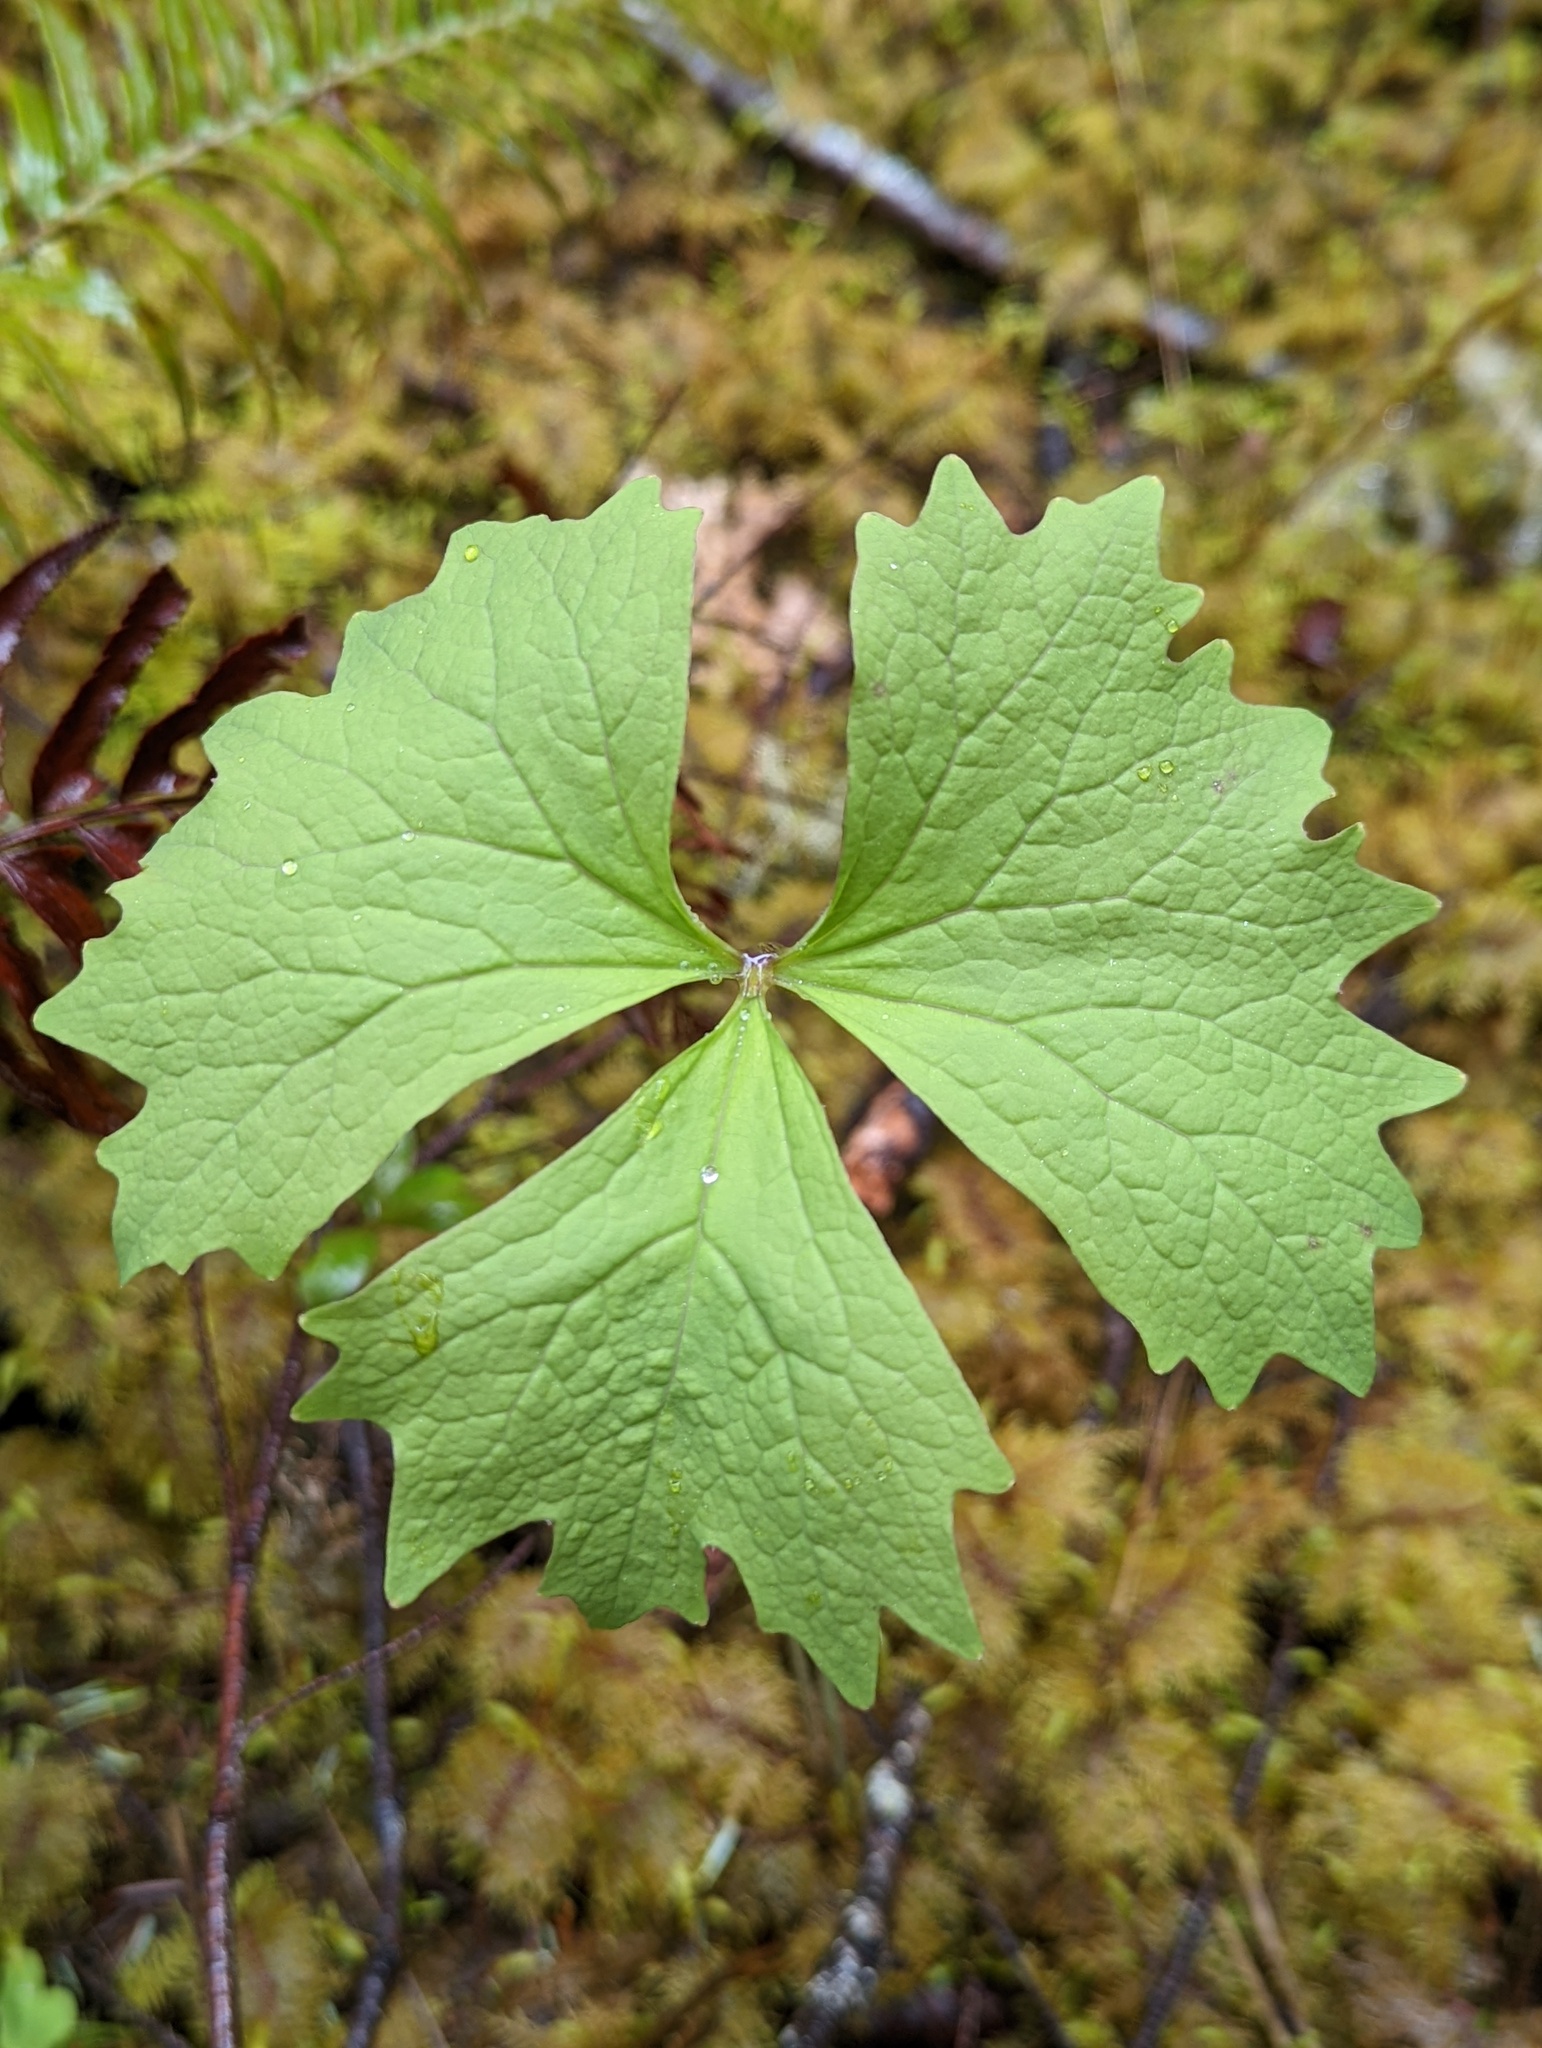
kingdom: Plantae
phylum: Tracheophyta
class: Magnoliopsida
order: Ranunculales
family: Berberidaceae
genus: Achlys
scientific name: Achlys triphylla
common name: Vanilla-leaf
